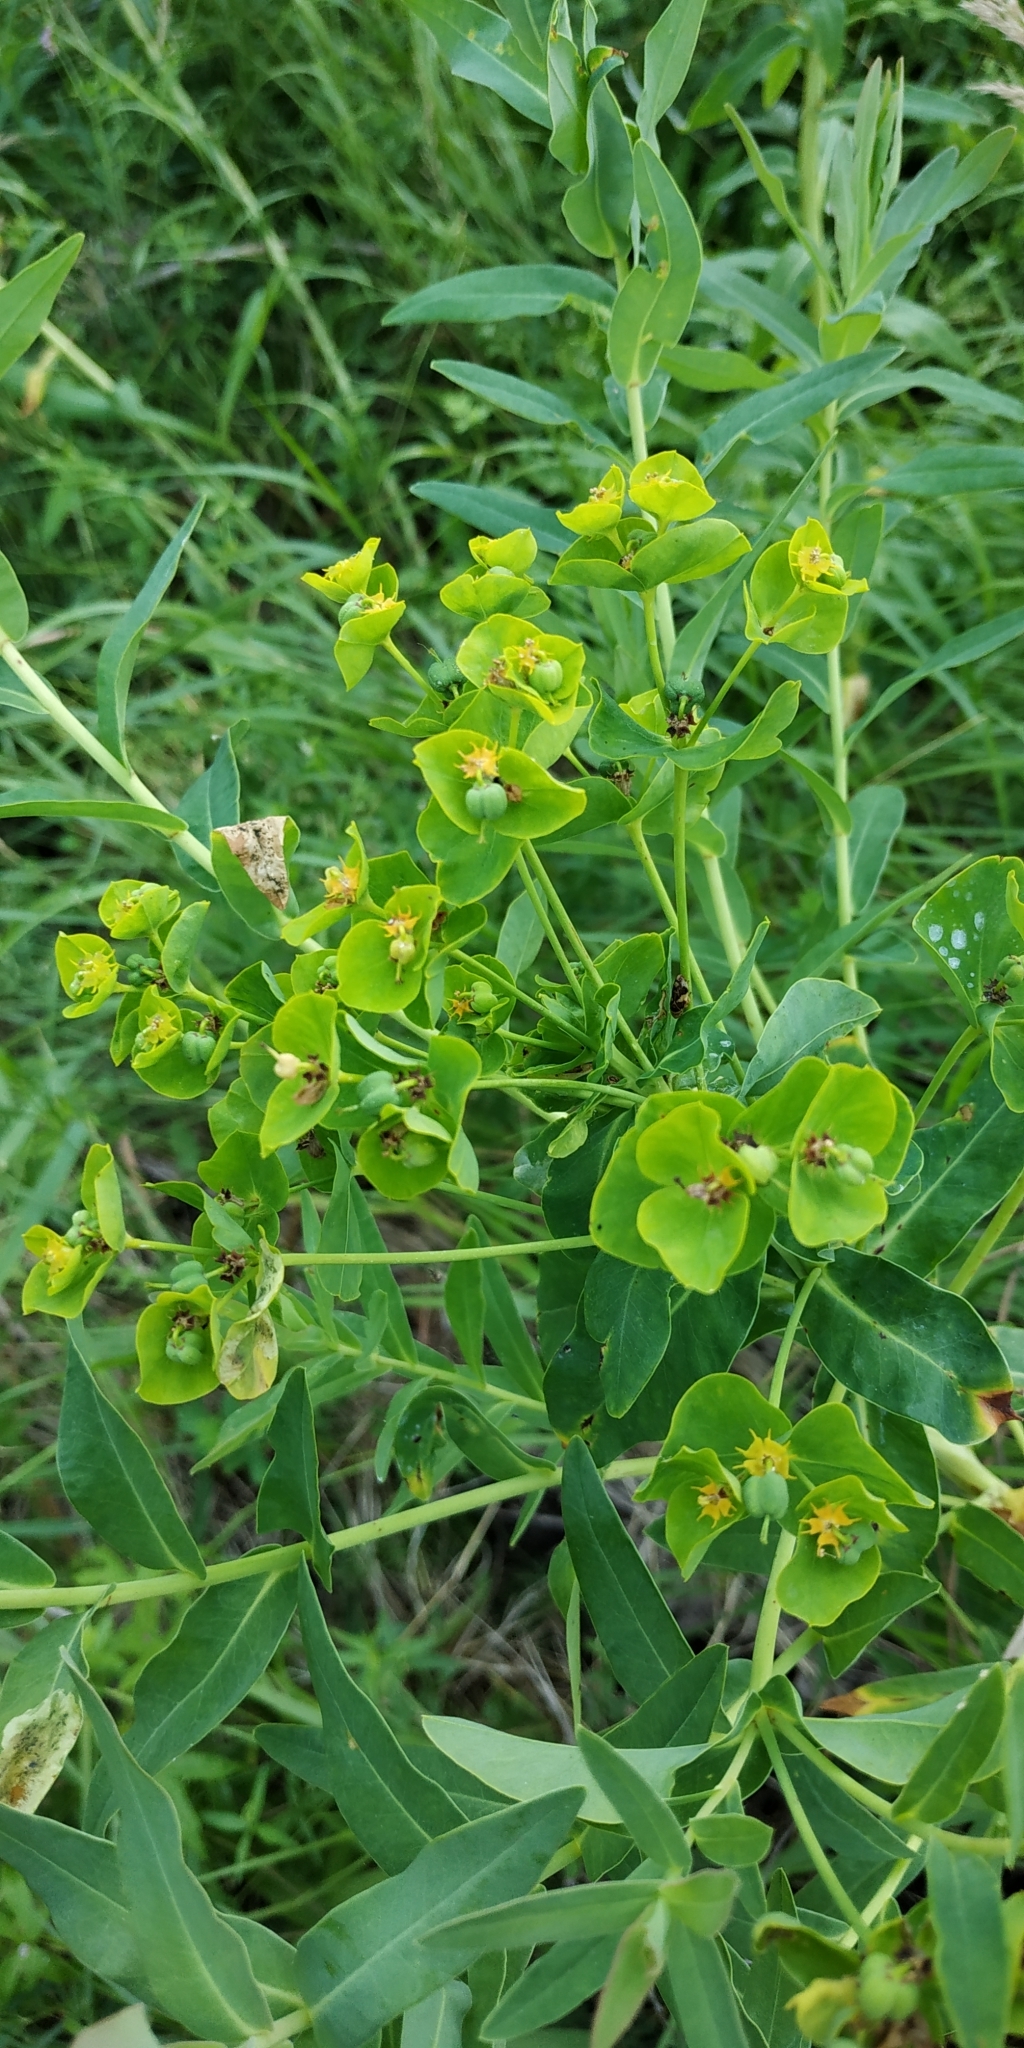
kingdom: Plantae
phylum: Tracheophyta
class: Magnoliopsida
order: Malpighiales
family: Euphorbiaceae
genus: Euphorbia
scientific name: Euphorbia lucida
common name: Shining spurge
